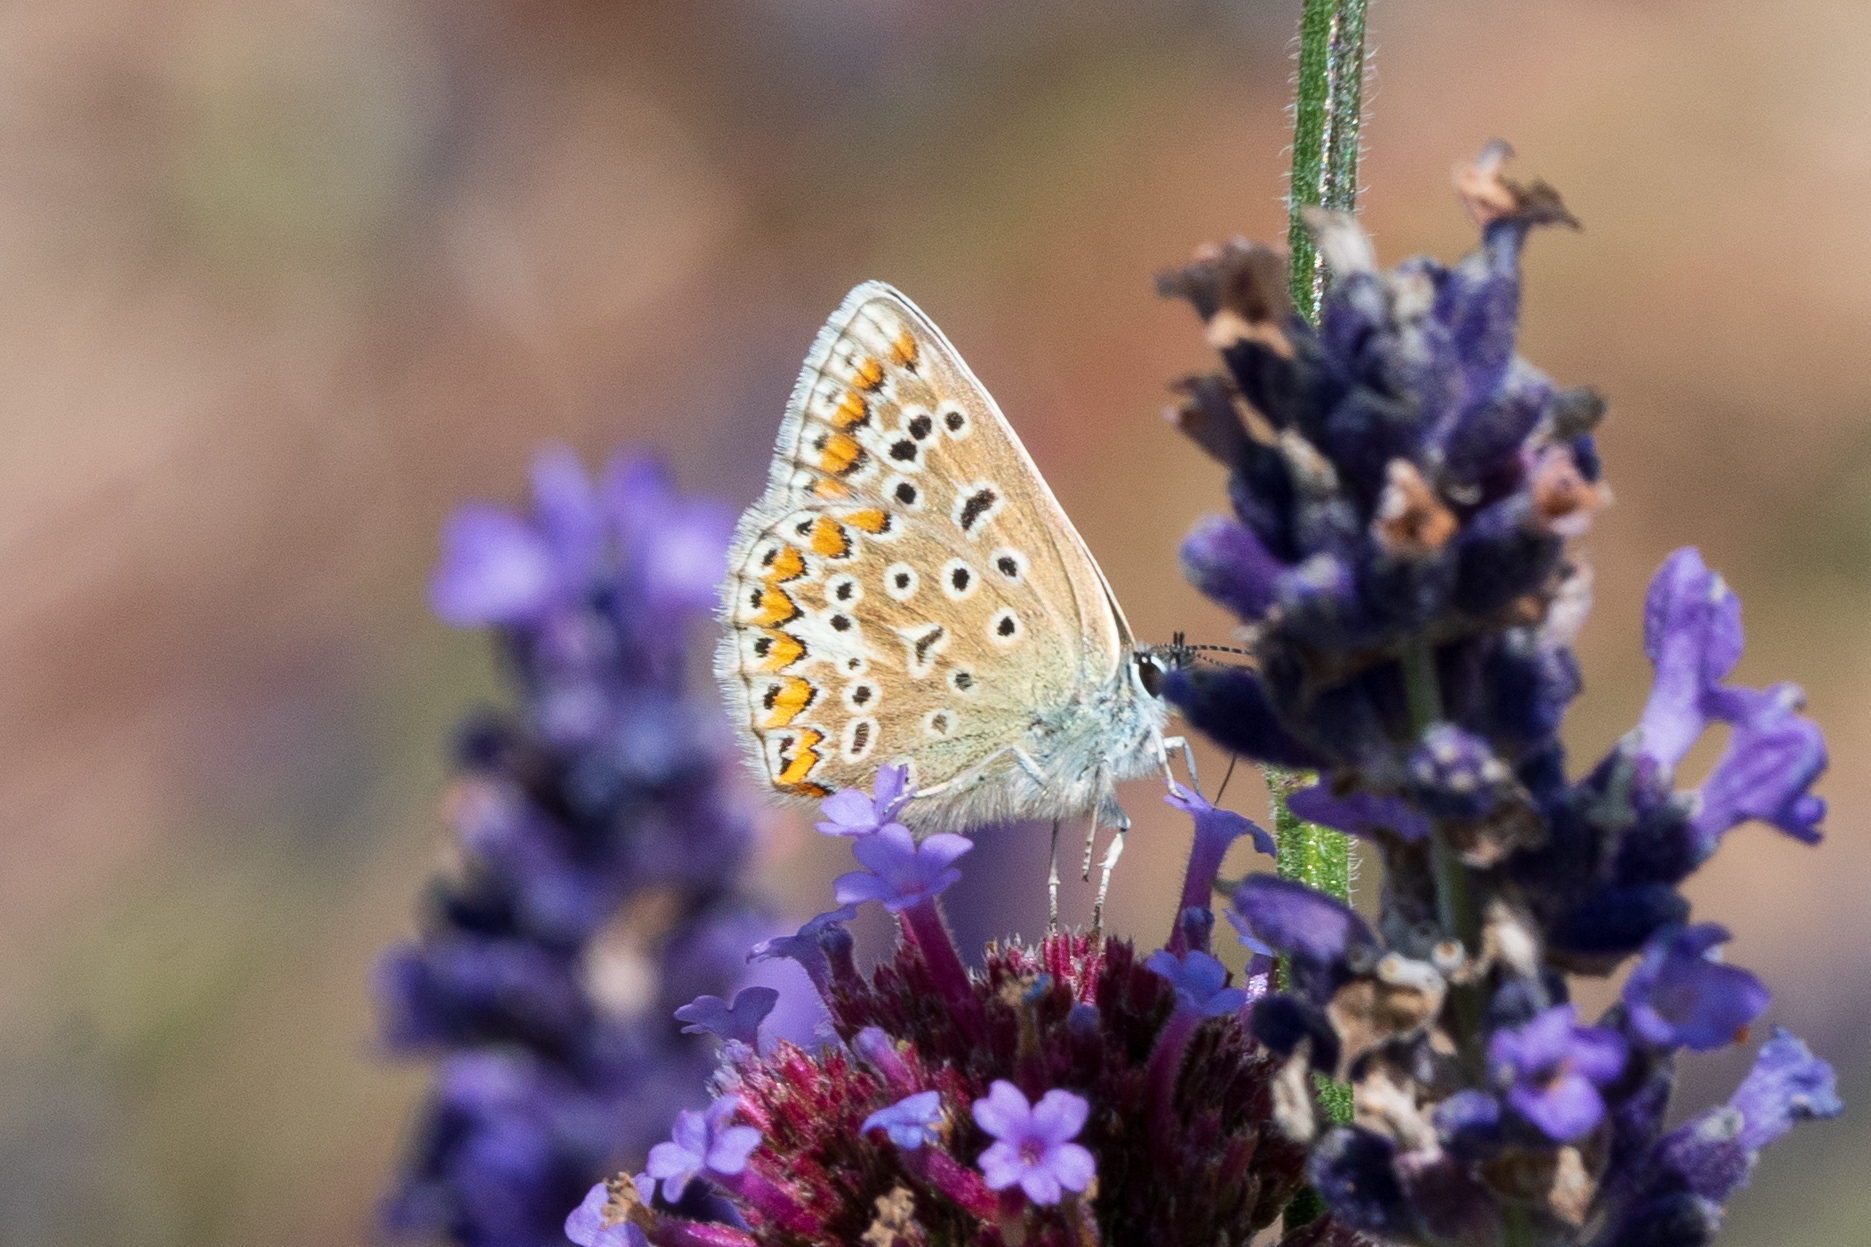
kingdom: Animalia
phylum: Arthropoda
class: Insecta
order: Lepidoptera
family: Lycaenidae
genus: Polyommatus
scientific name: Polyommatus icarus
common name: Common blue
